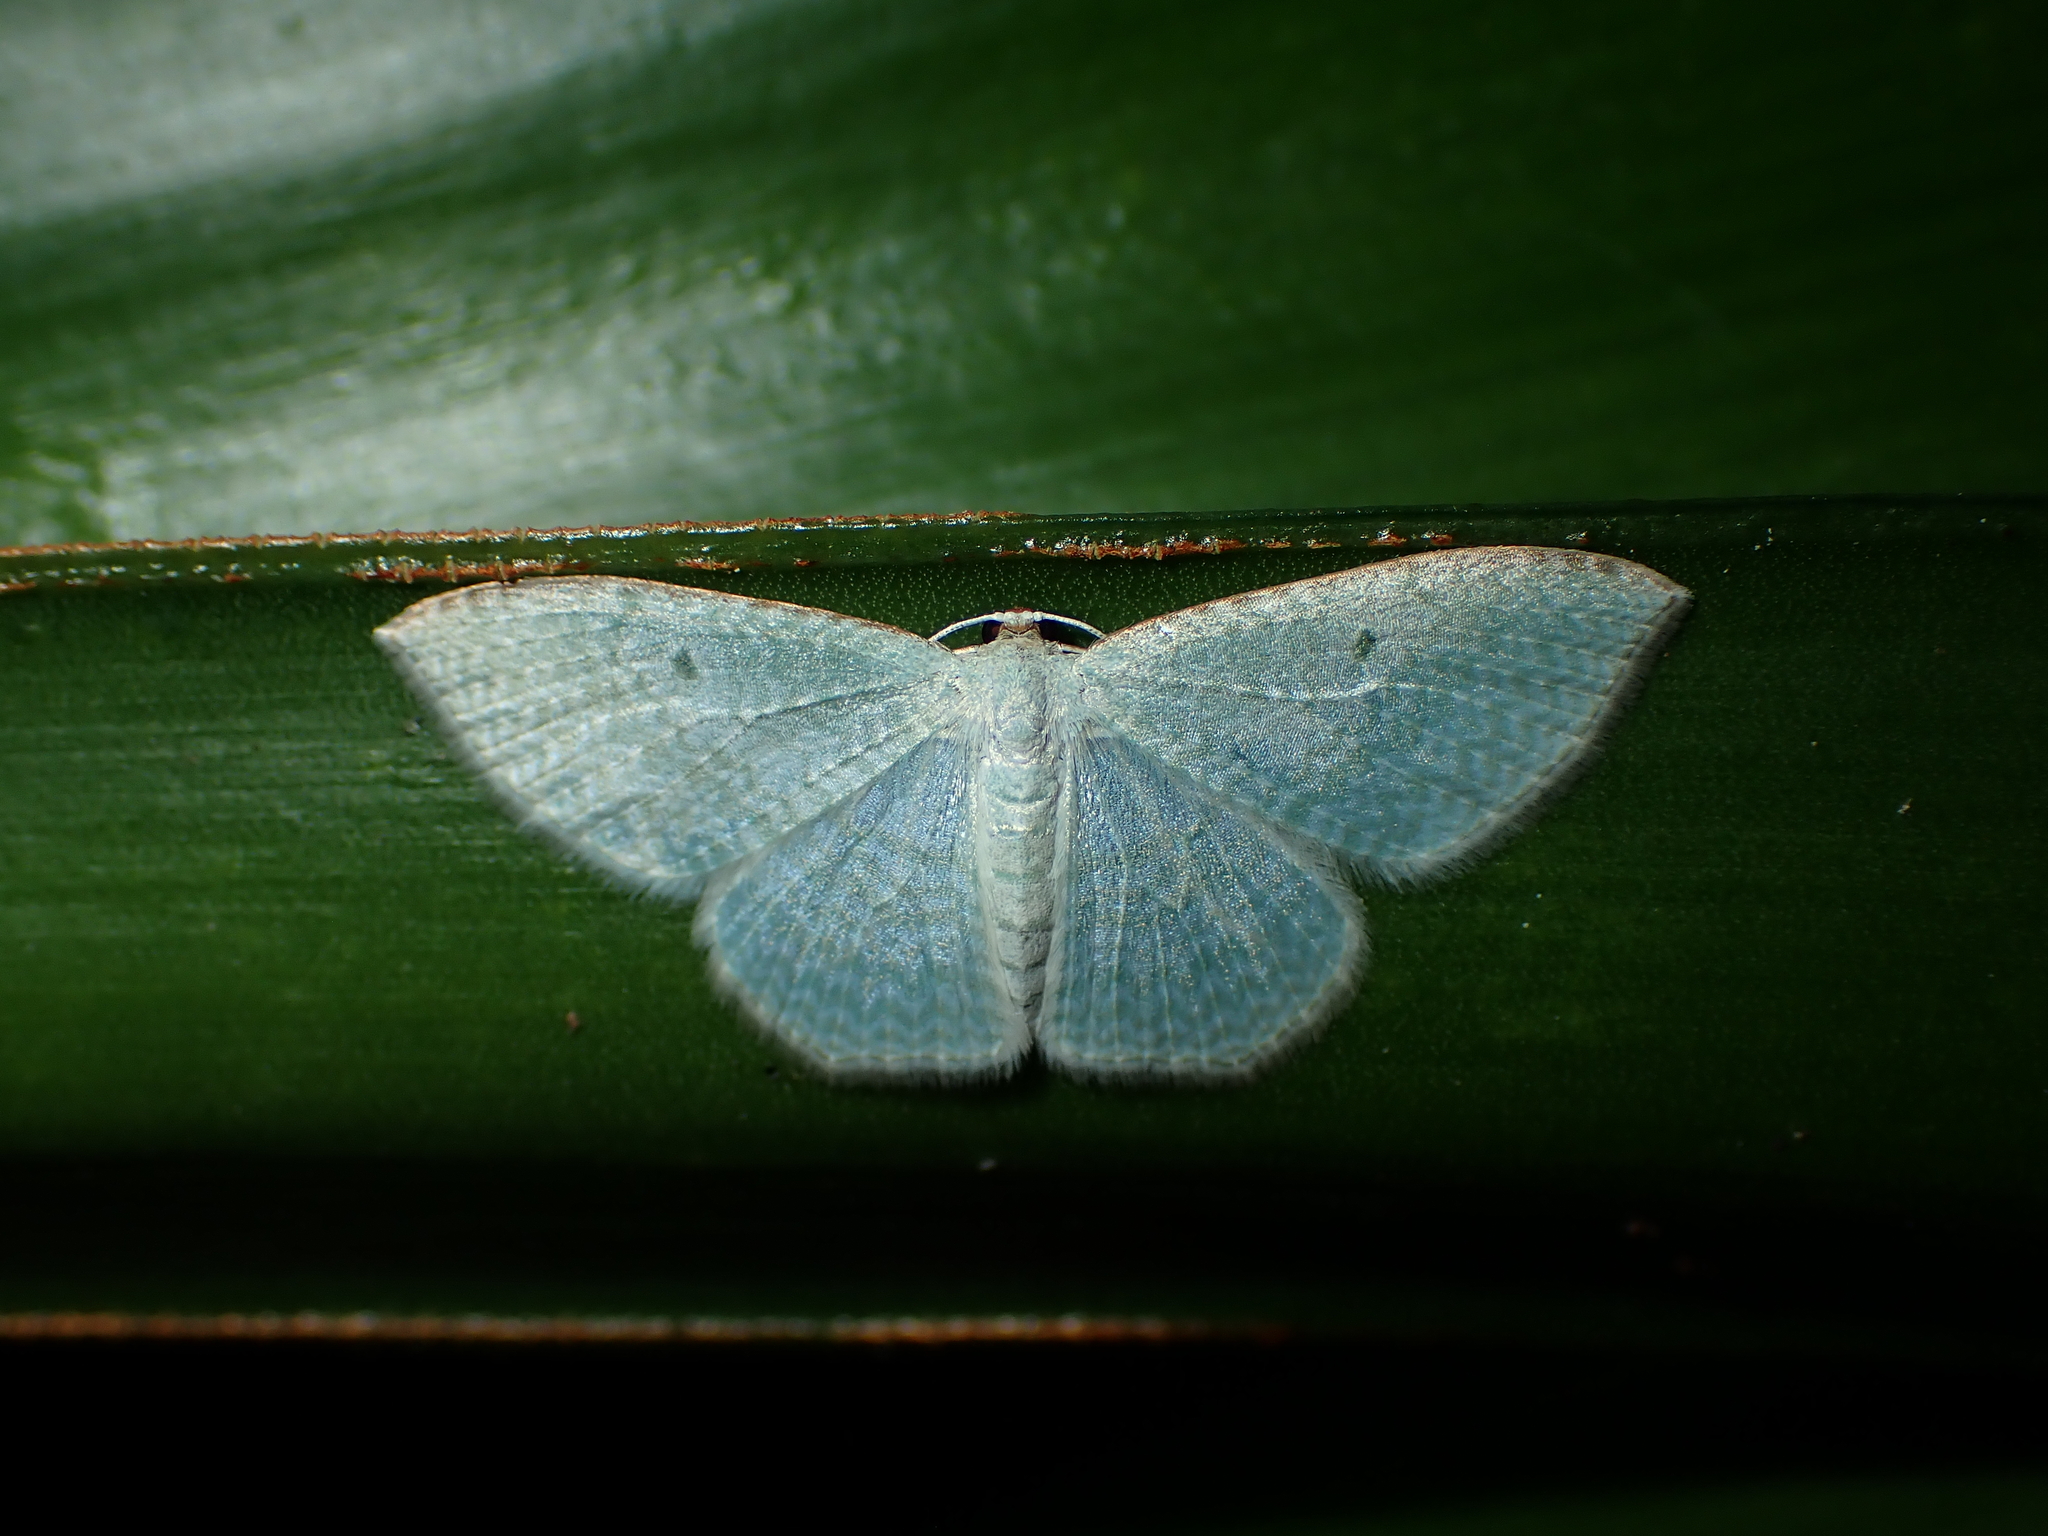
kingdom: Animalia
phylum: Arthropoda
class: Insecta
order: Lepidoptera
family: Geometridae
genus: Poecilasthena
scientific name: Poecilasthena pulchraria
